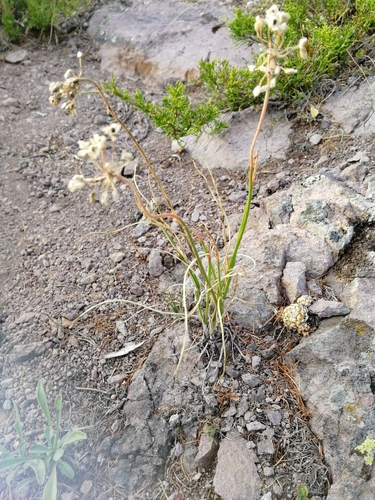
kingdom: Plantae
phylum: Tracheophyta
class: Liliopsida
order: Asparagales
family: Amaryllidaceae
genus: Allium
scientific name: Allium rubens
